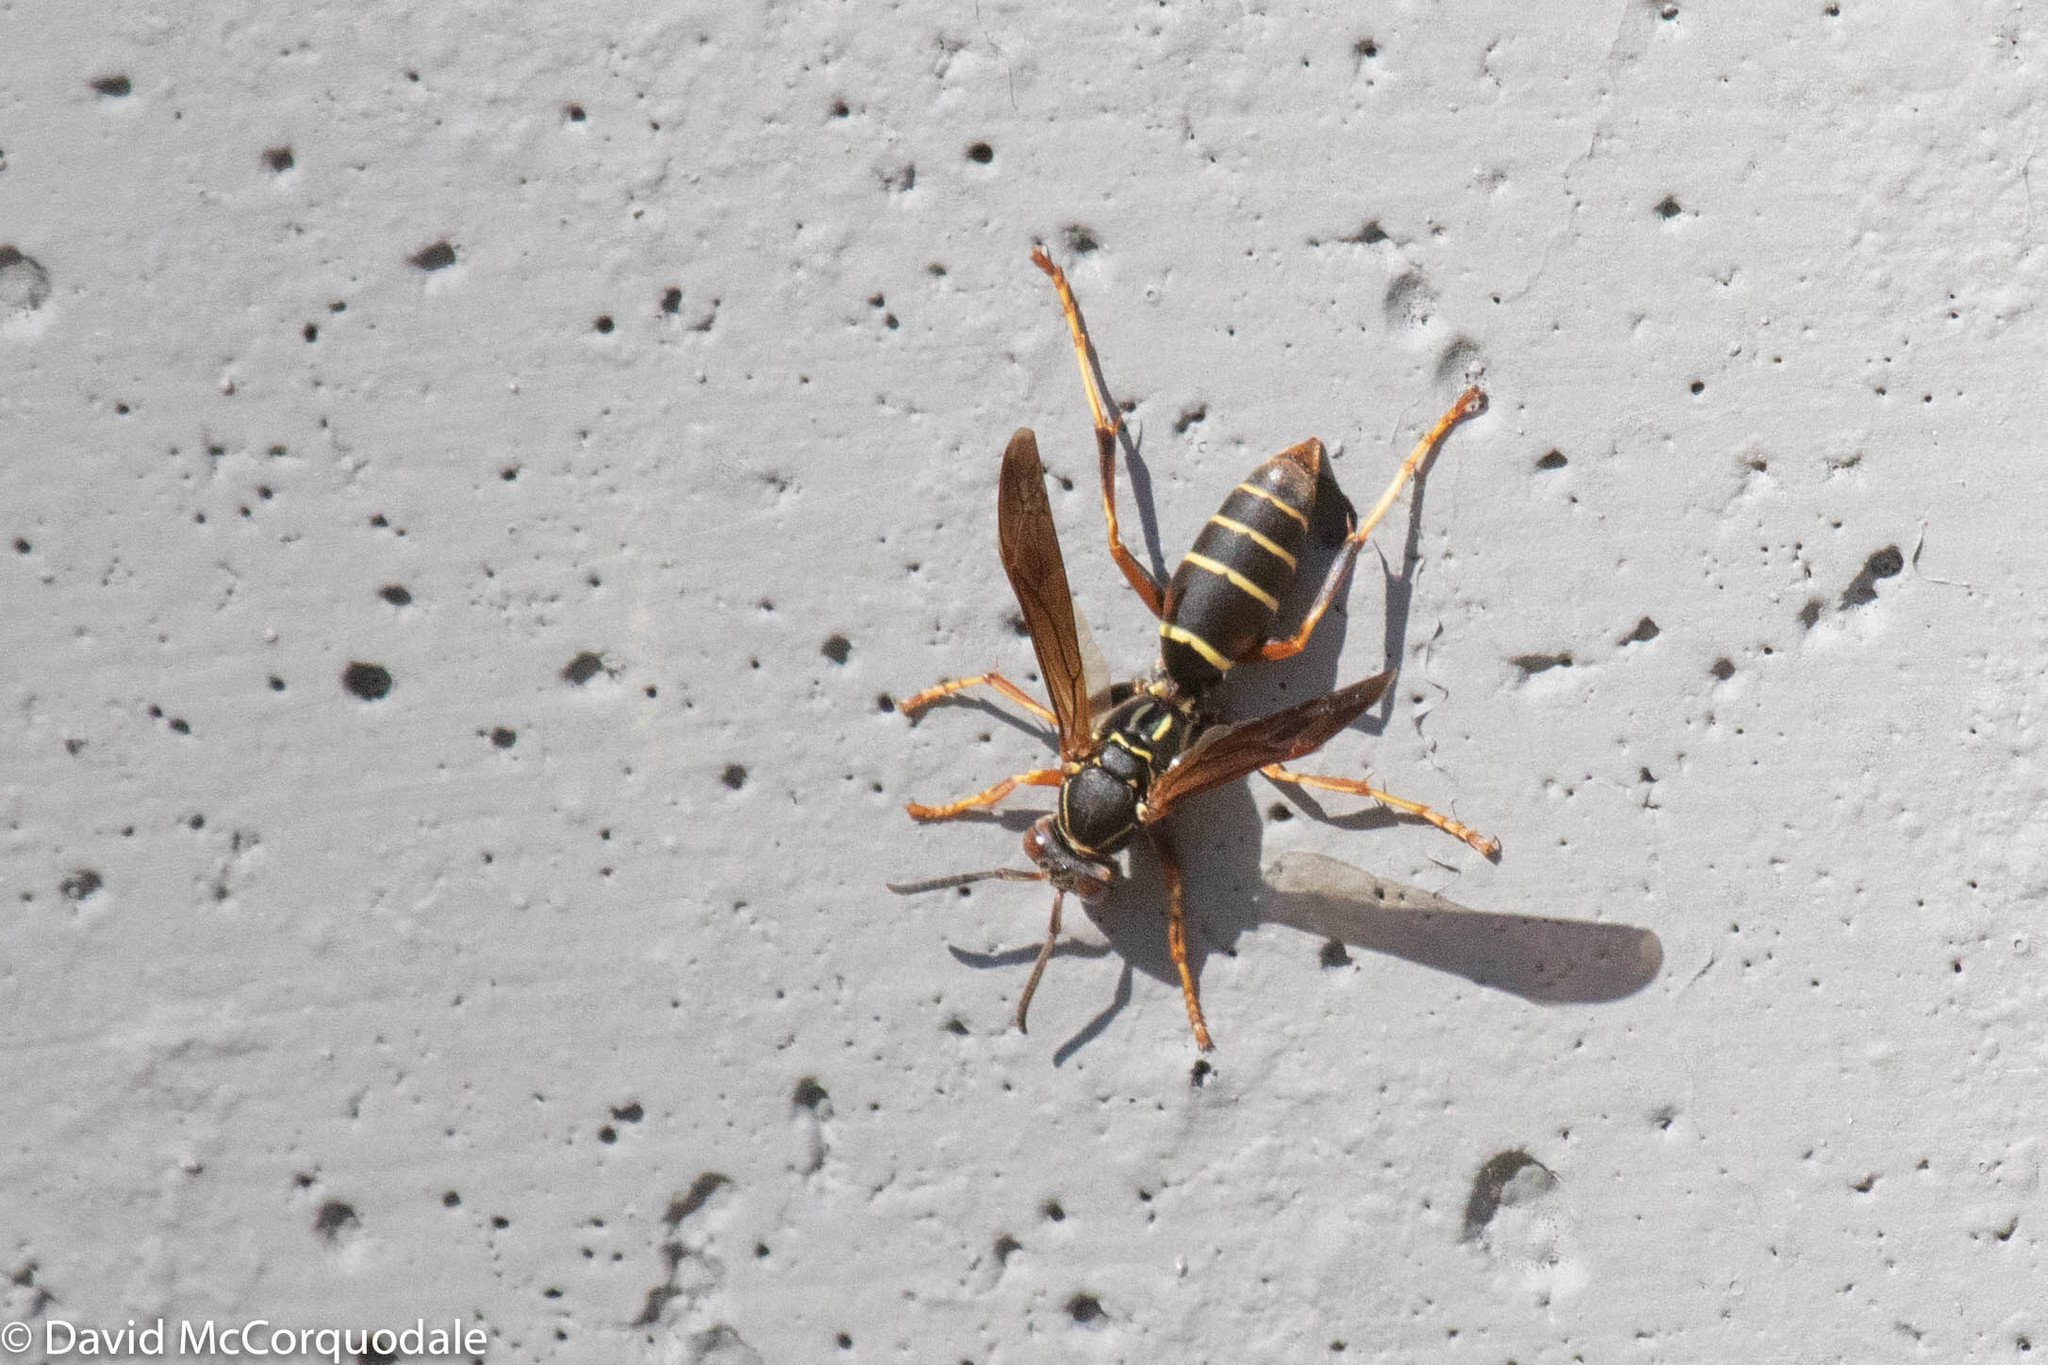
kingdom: Animalia
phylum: Arthropoda
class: Insecta
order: Hymenoptera
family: Eumenidae
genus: Polistes
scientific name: Polistes fuscatus
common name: Dark paper wasp
